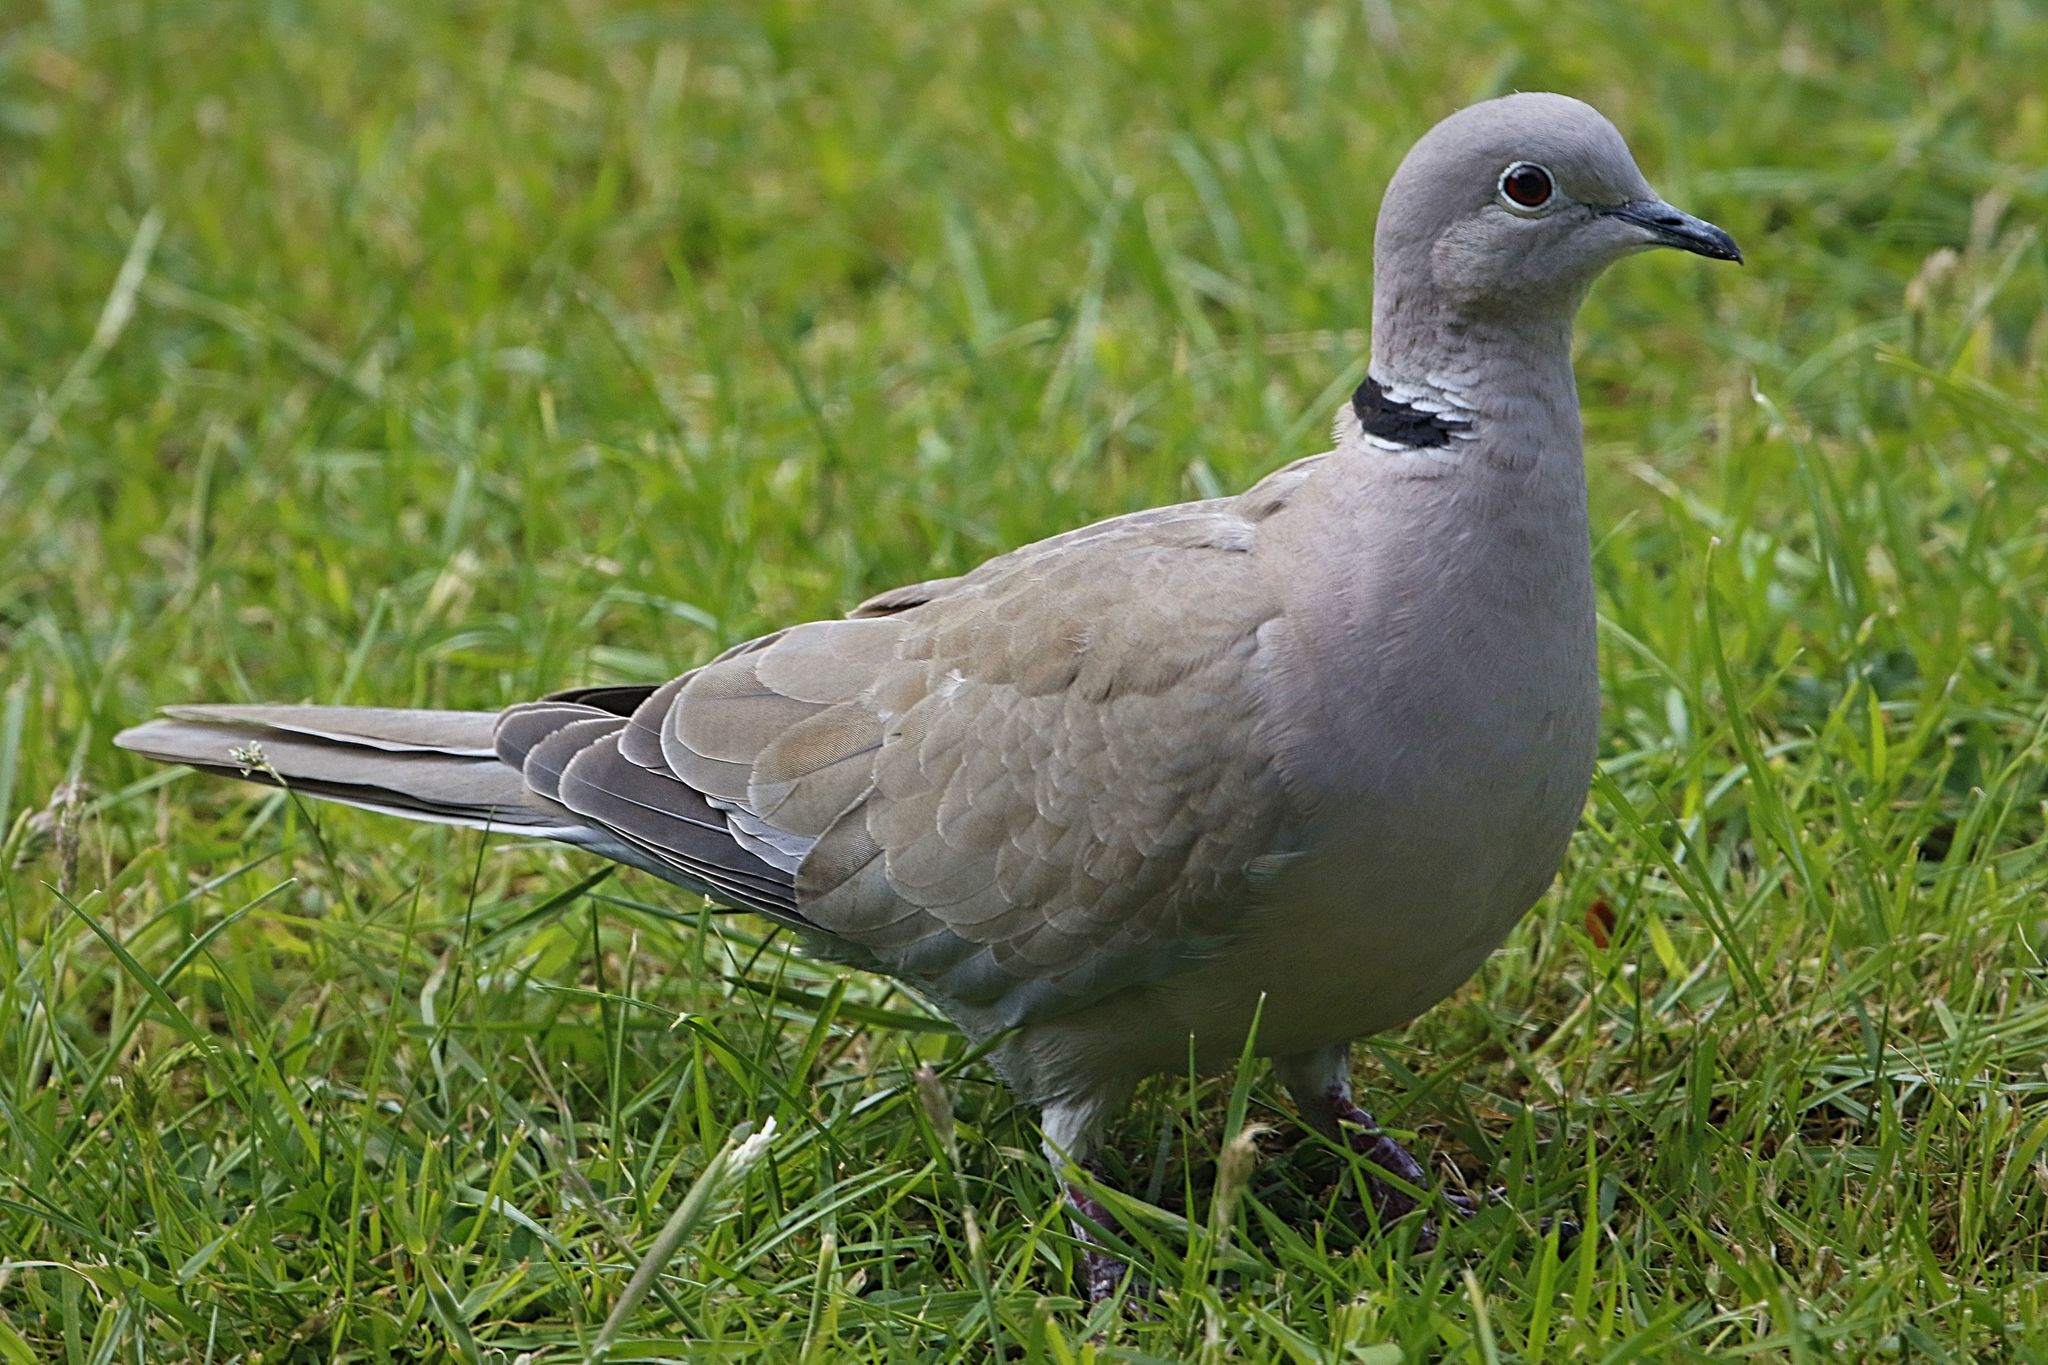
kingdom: Animalia
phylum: Chordata
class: Aves
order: Columbiformes
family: Columbidae
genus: Streptopelia
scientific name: Streptopelia decaocto
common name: Eurasian collared dove
